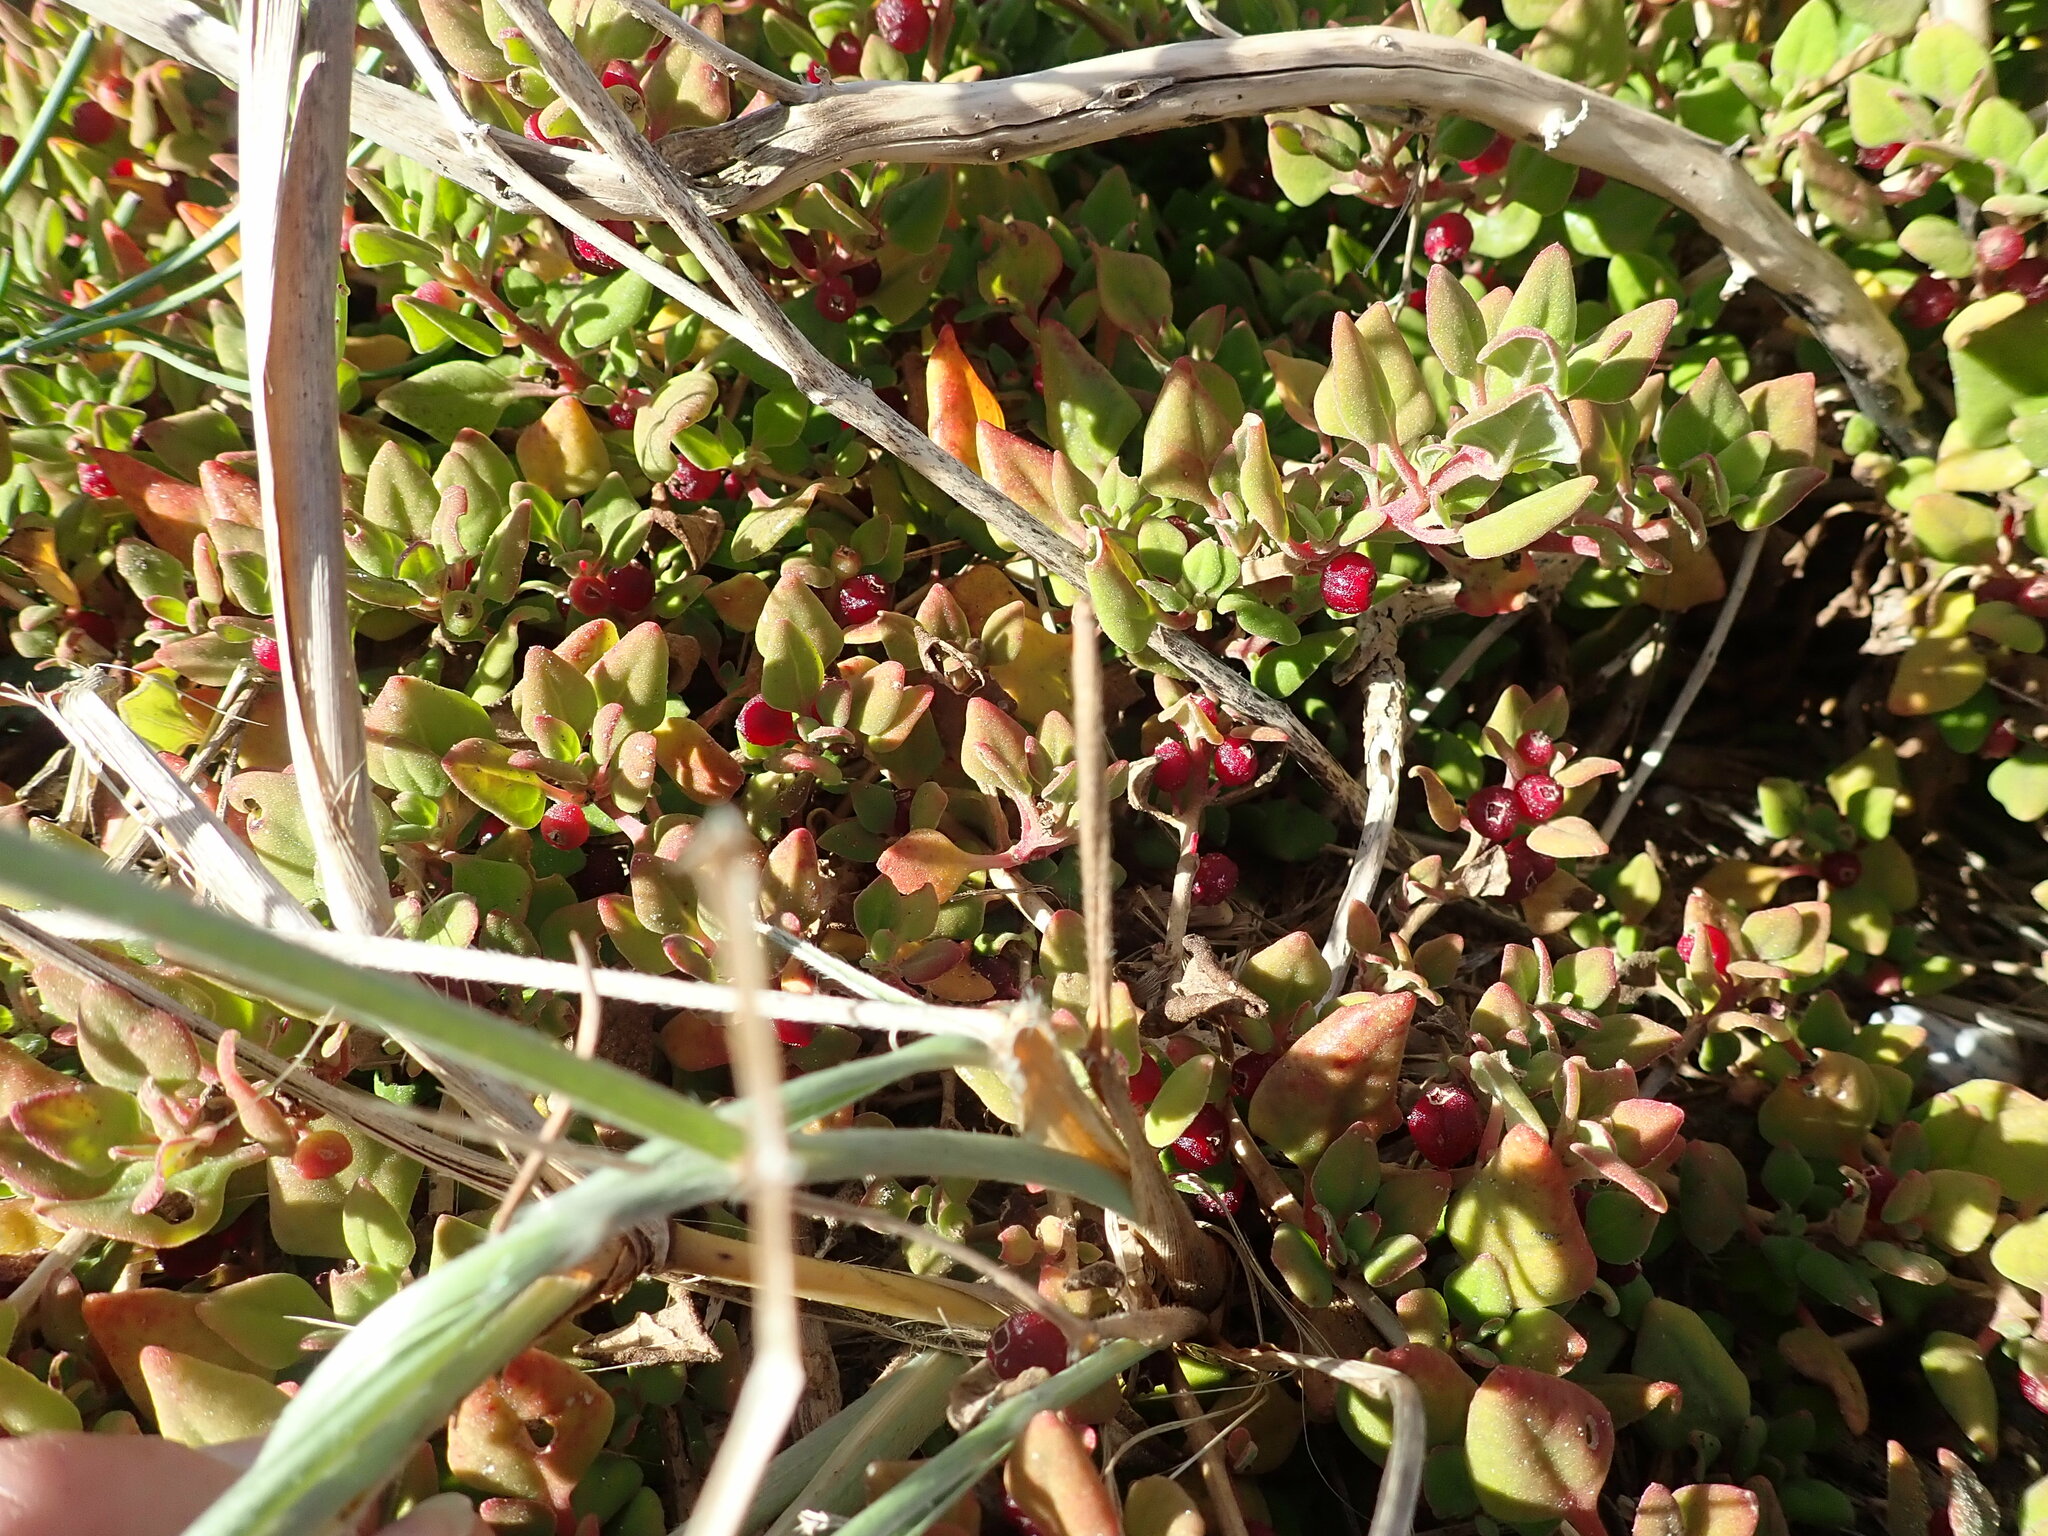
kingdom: Plantae
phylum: Tracheophyta
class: Magnoliopsida
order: Caryophyllales
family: Aizoaceae
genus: Tetragonia
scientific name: Tetragonia implexicoma
